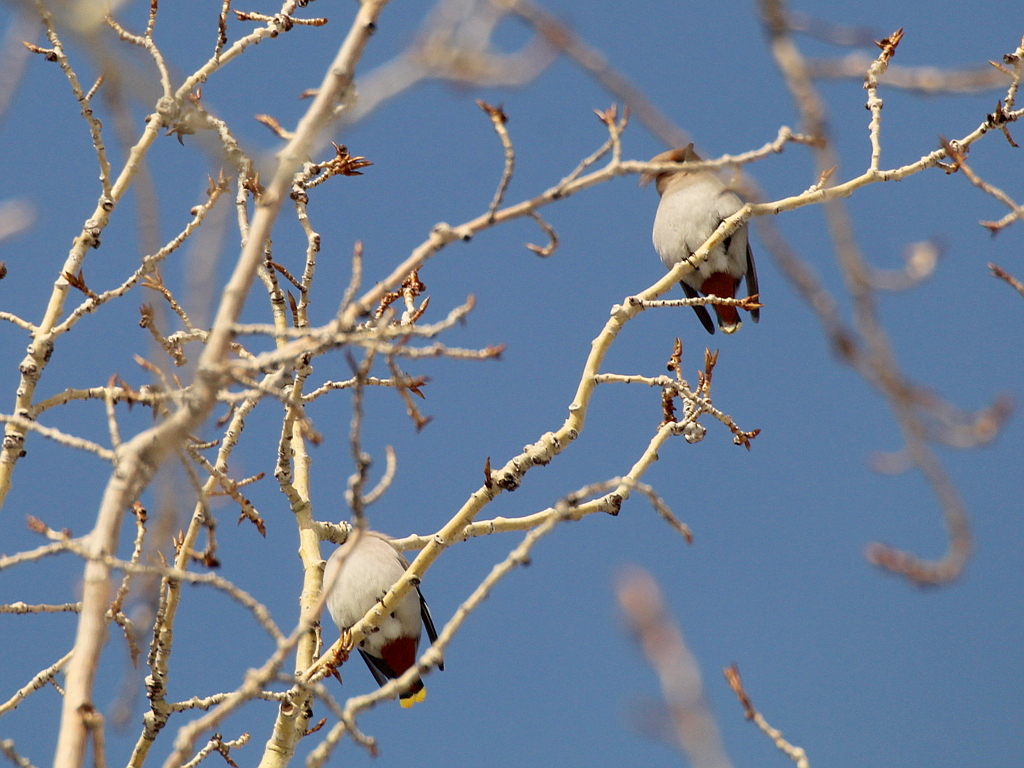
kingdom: Animalia
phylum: Chordata
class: Aves
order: Passeriformes
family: Bombycillidae
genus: Bombycilla
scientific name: Bombycilla garrulus
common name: Bohemian waxwing
